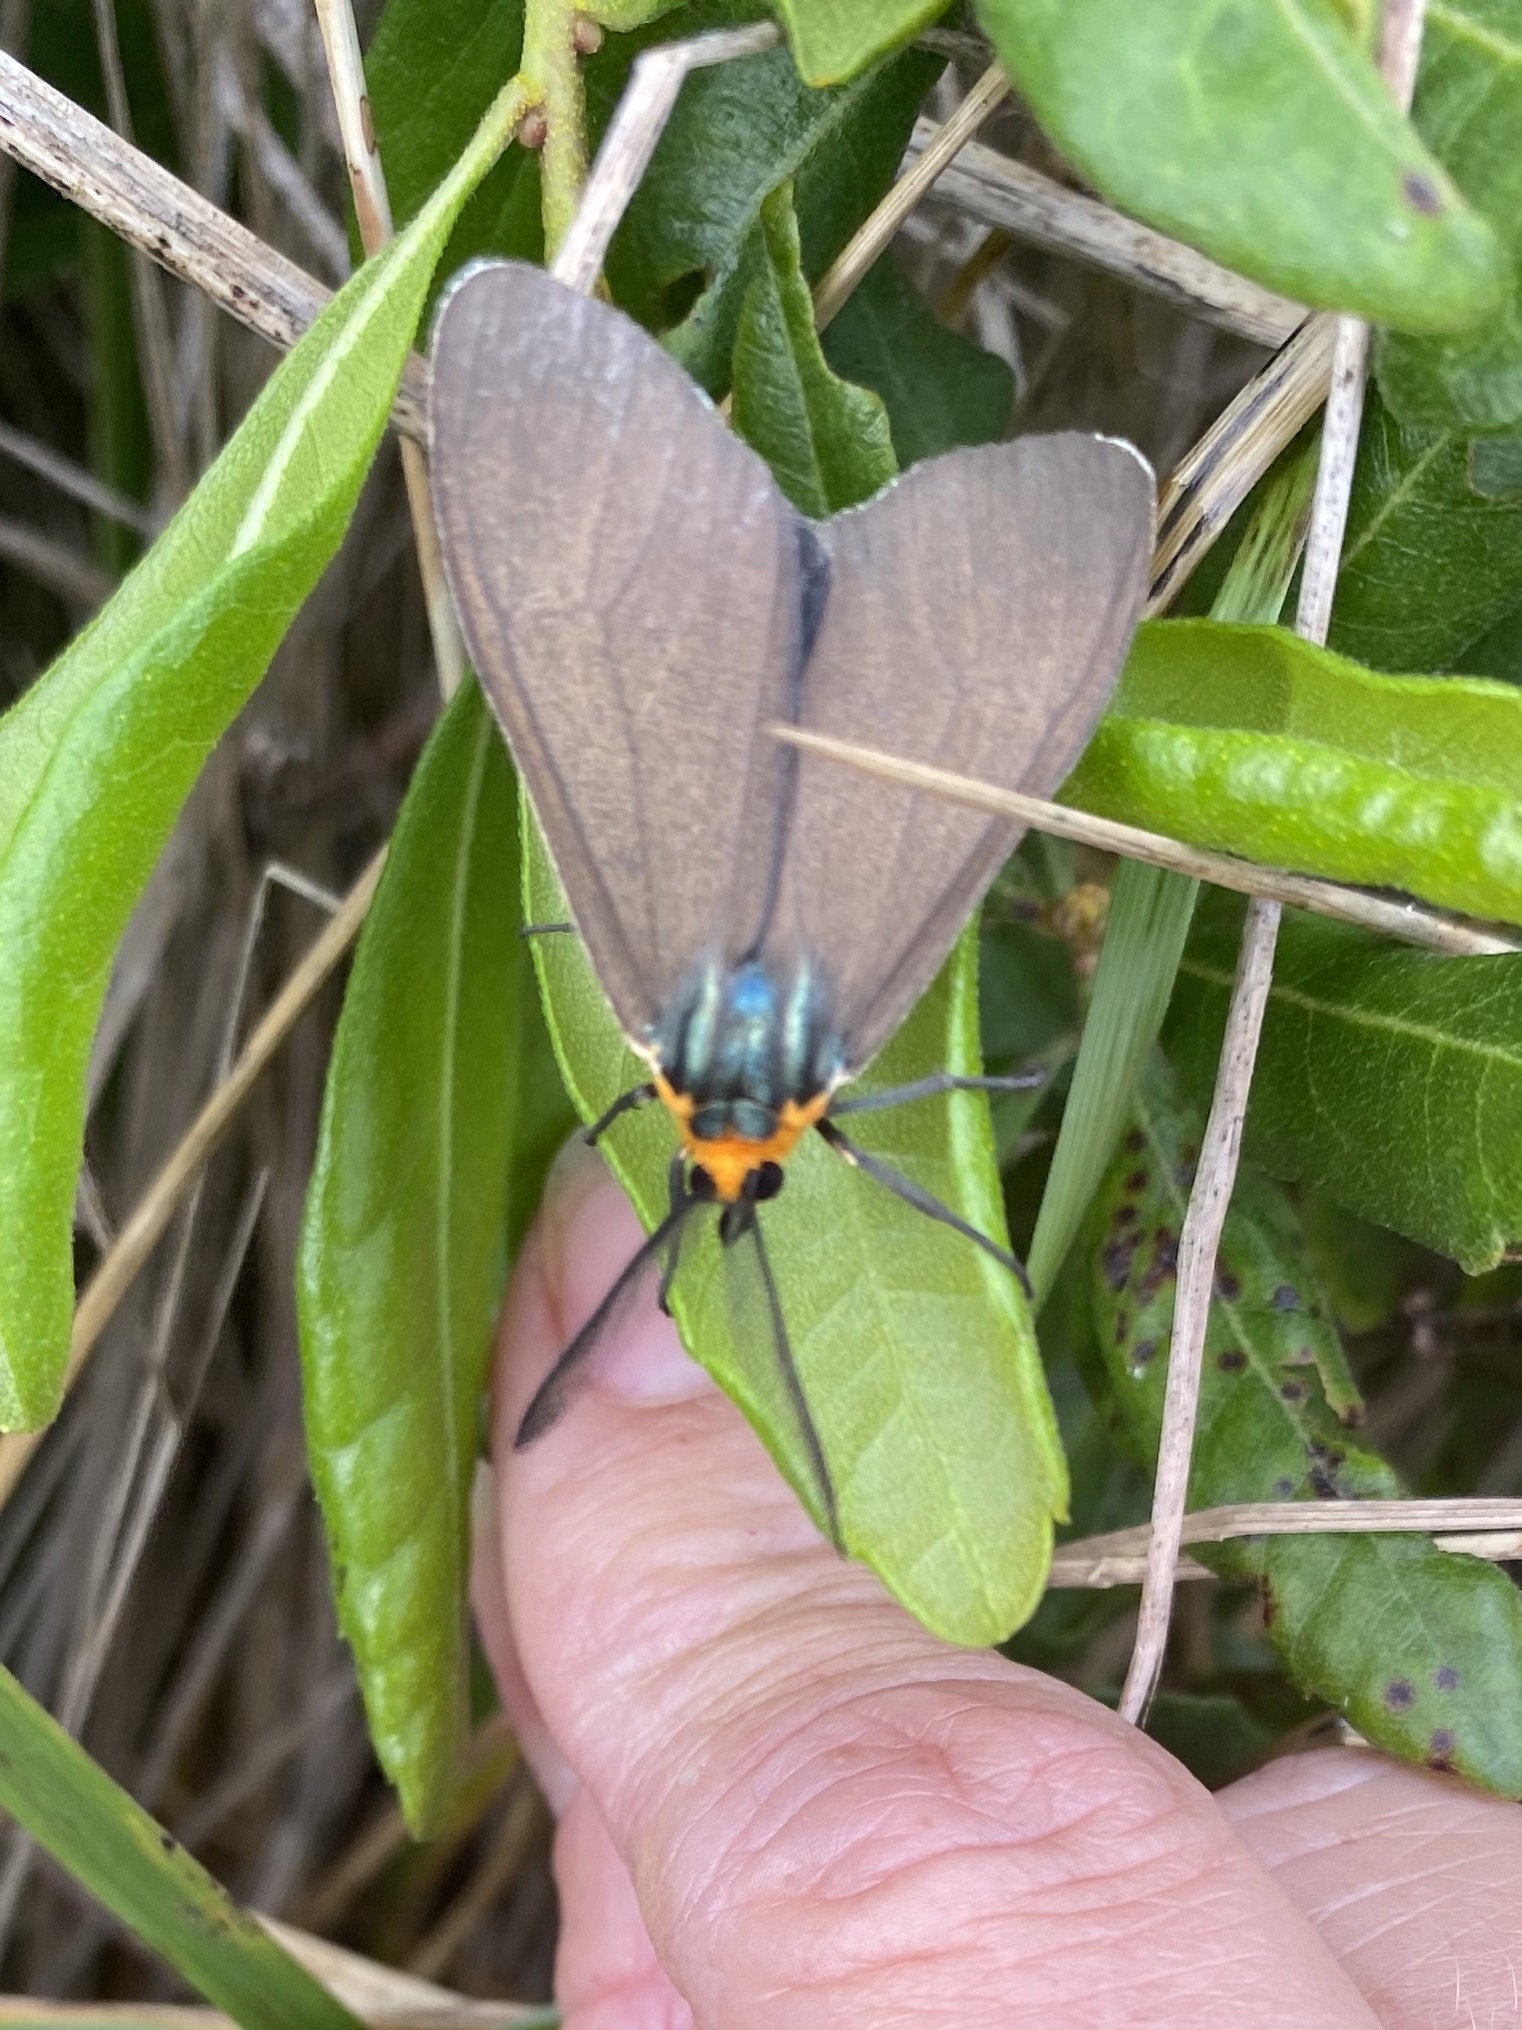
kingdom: Animalia
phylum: Arthropoda
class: Insecta
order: Lepidoptera
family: Erebidae
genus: Ctenucha
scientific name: Ctenucha virginica
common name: Virginia ctenucha moth
